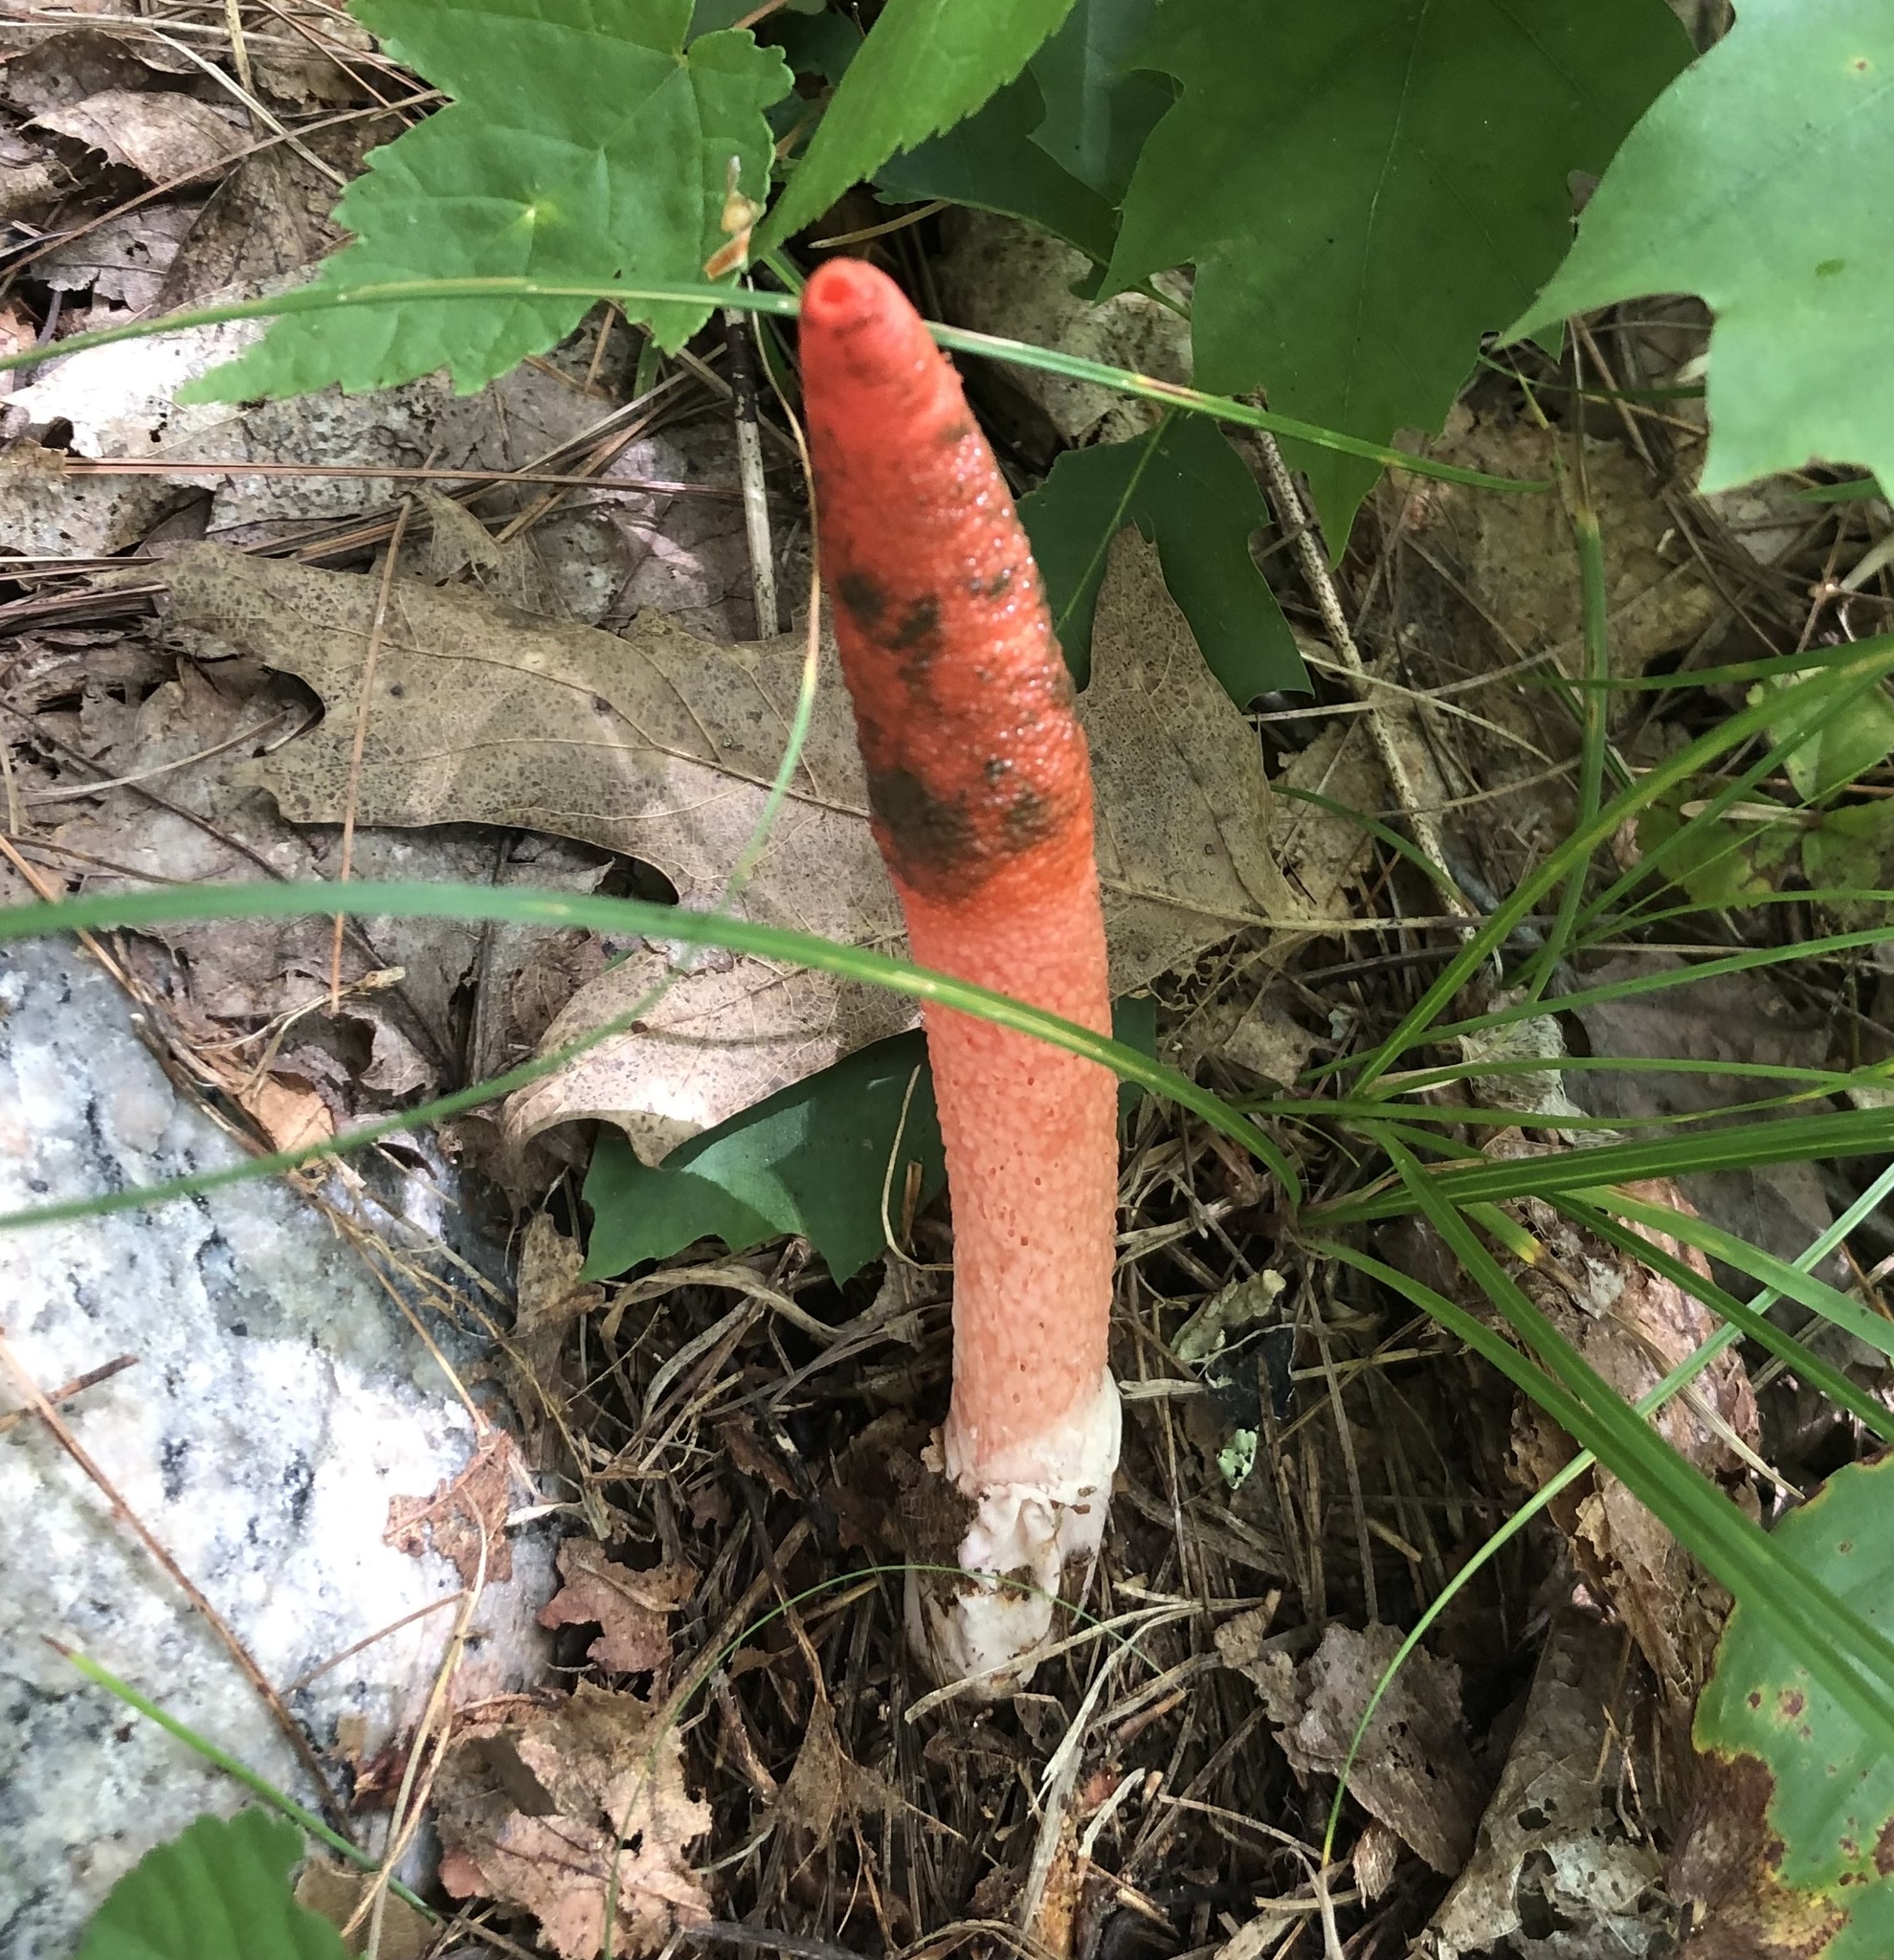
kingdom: Fungi
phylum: Basidiomycota
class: Agaricomycetes
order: Phallales
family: Phallaceae
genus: Mutinus
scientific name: Mutinus elegans
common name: Devil's dipstick
